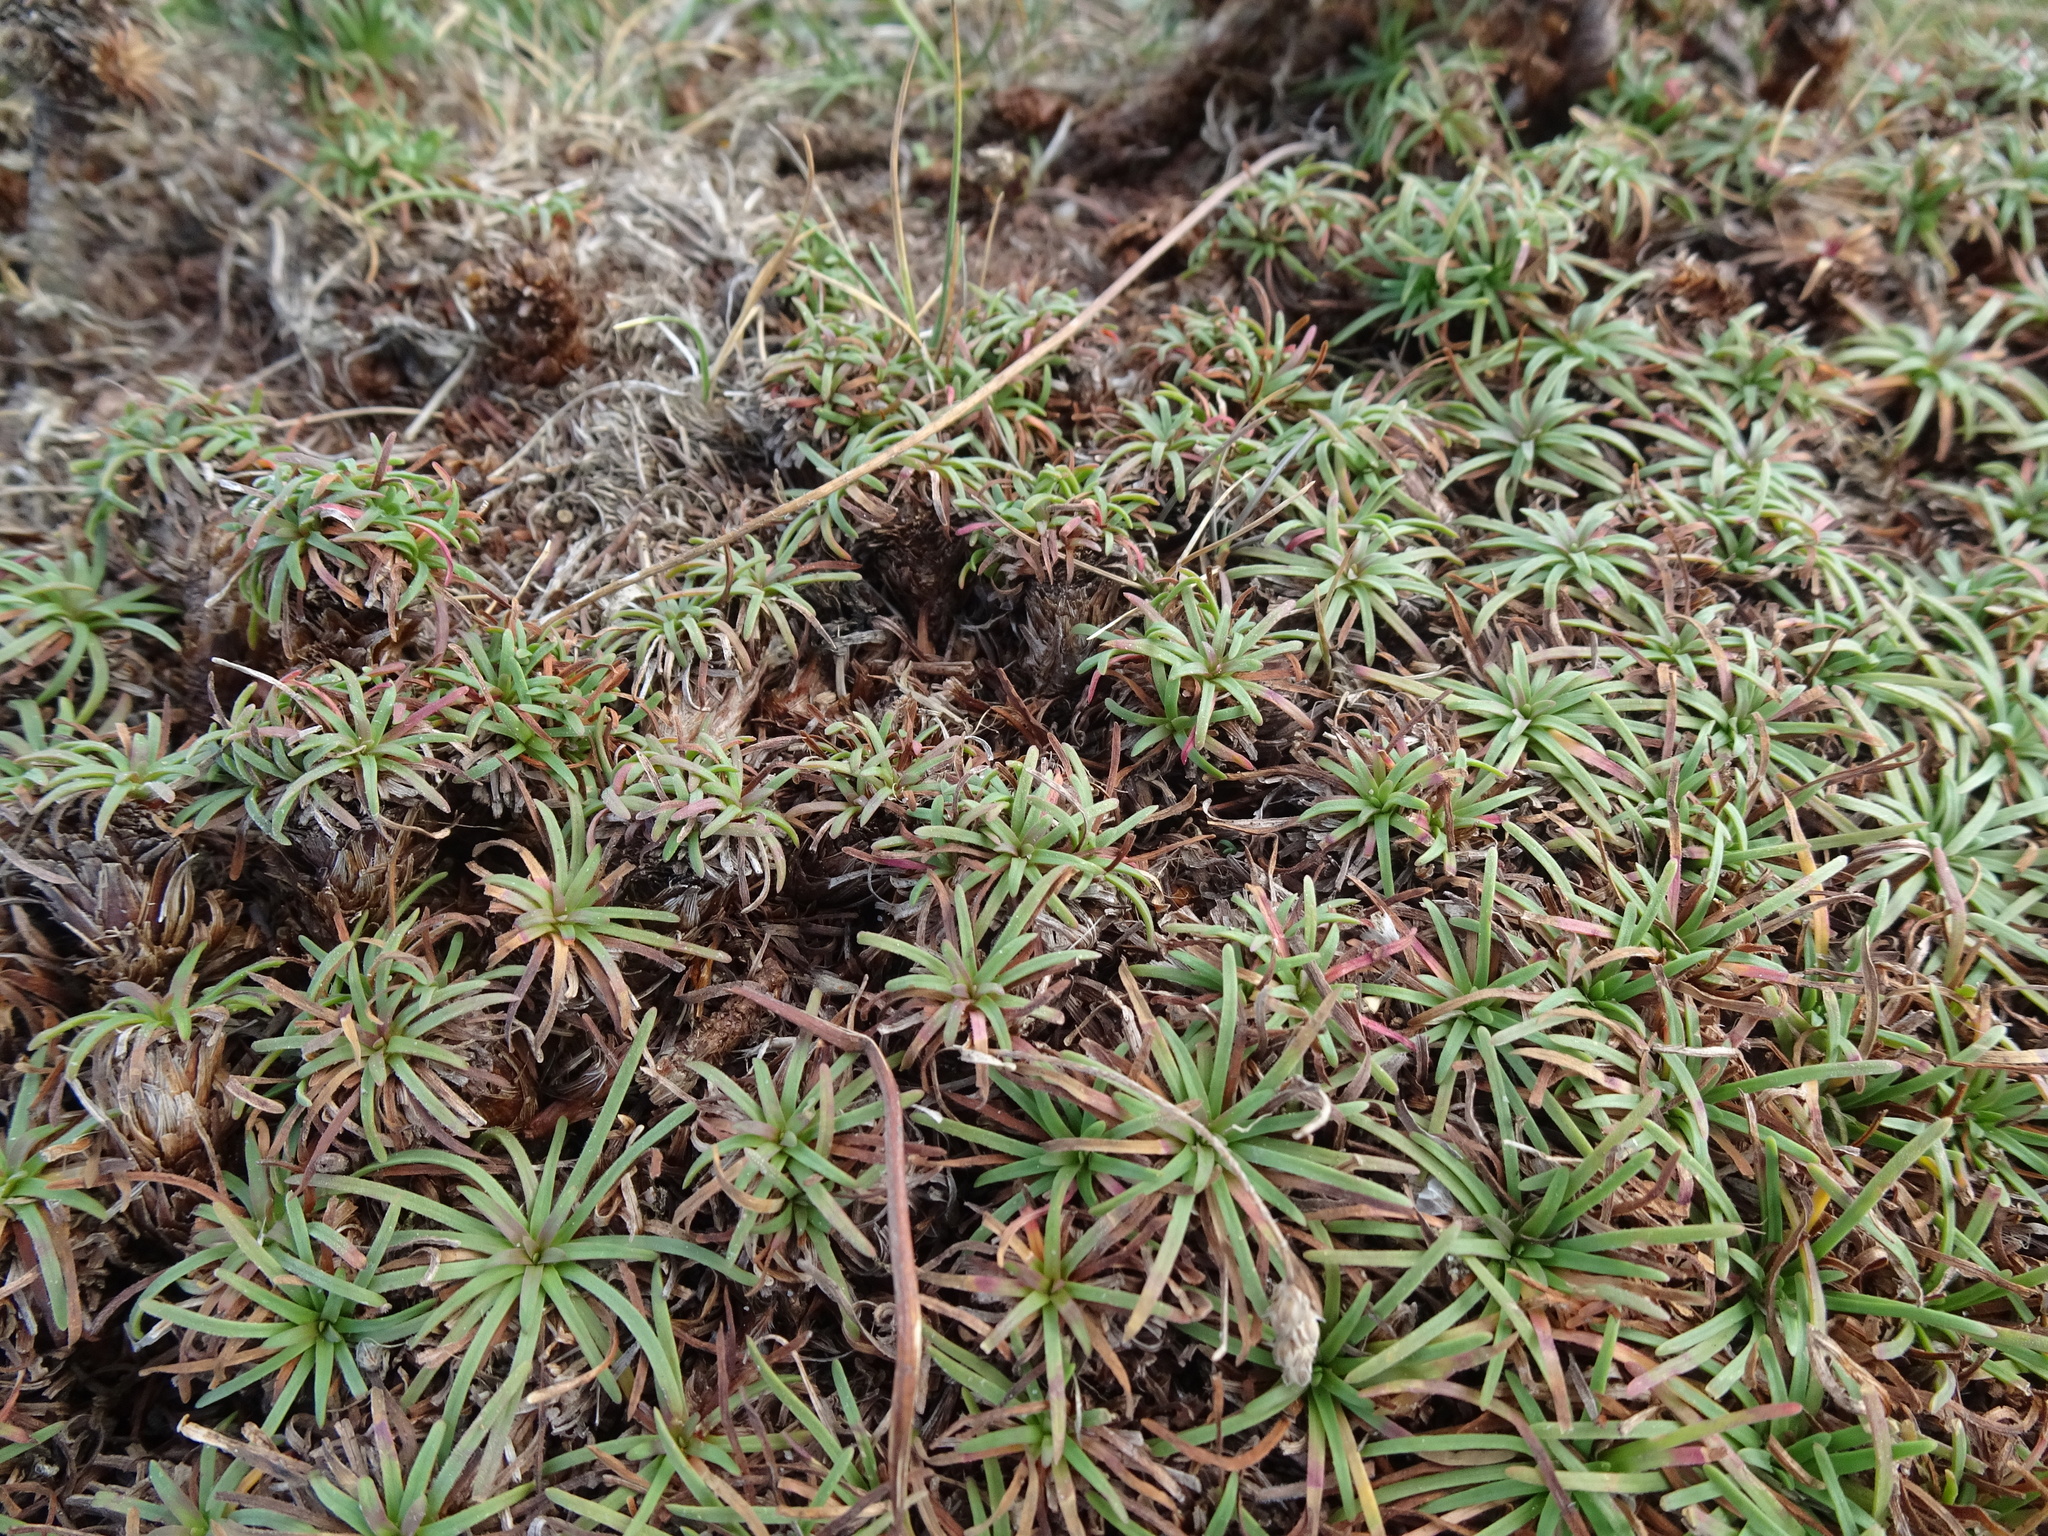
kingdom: Plantae
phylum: Tracheophyta
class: Magnoliopsida
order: Caryophyllales
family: Plumbaginaceae
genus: Armeria
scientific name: Armeria maritima
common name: Thrift
